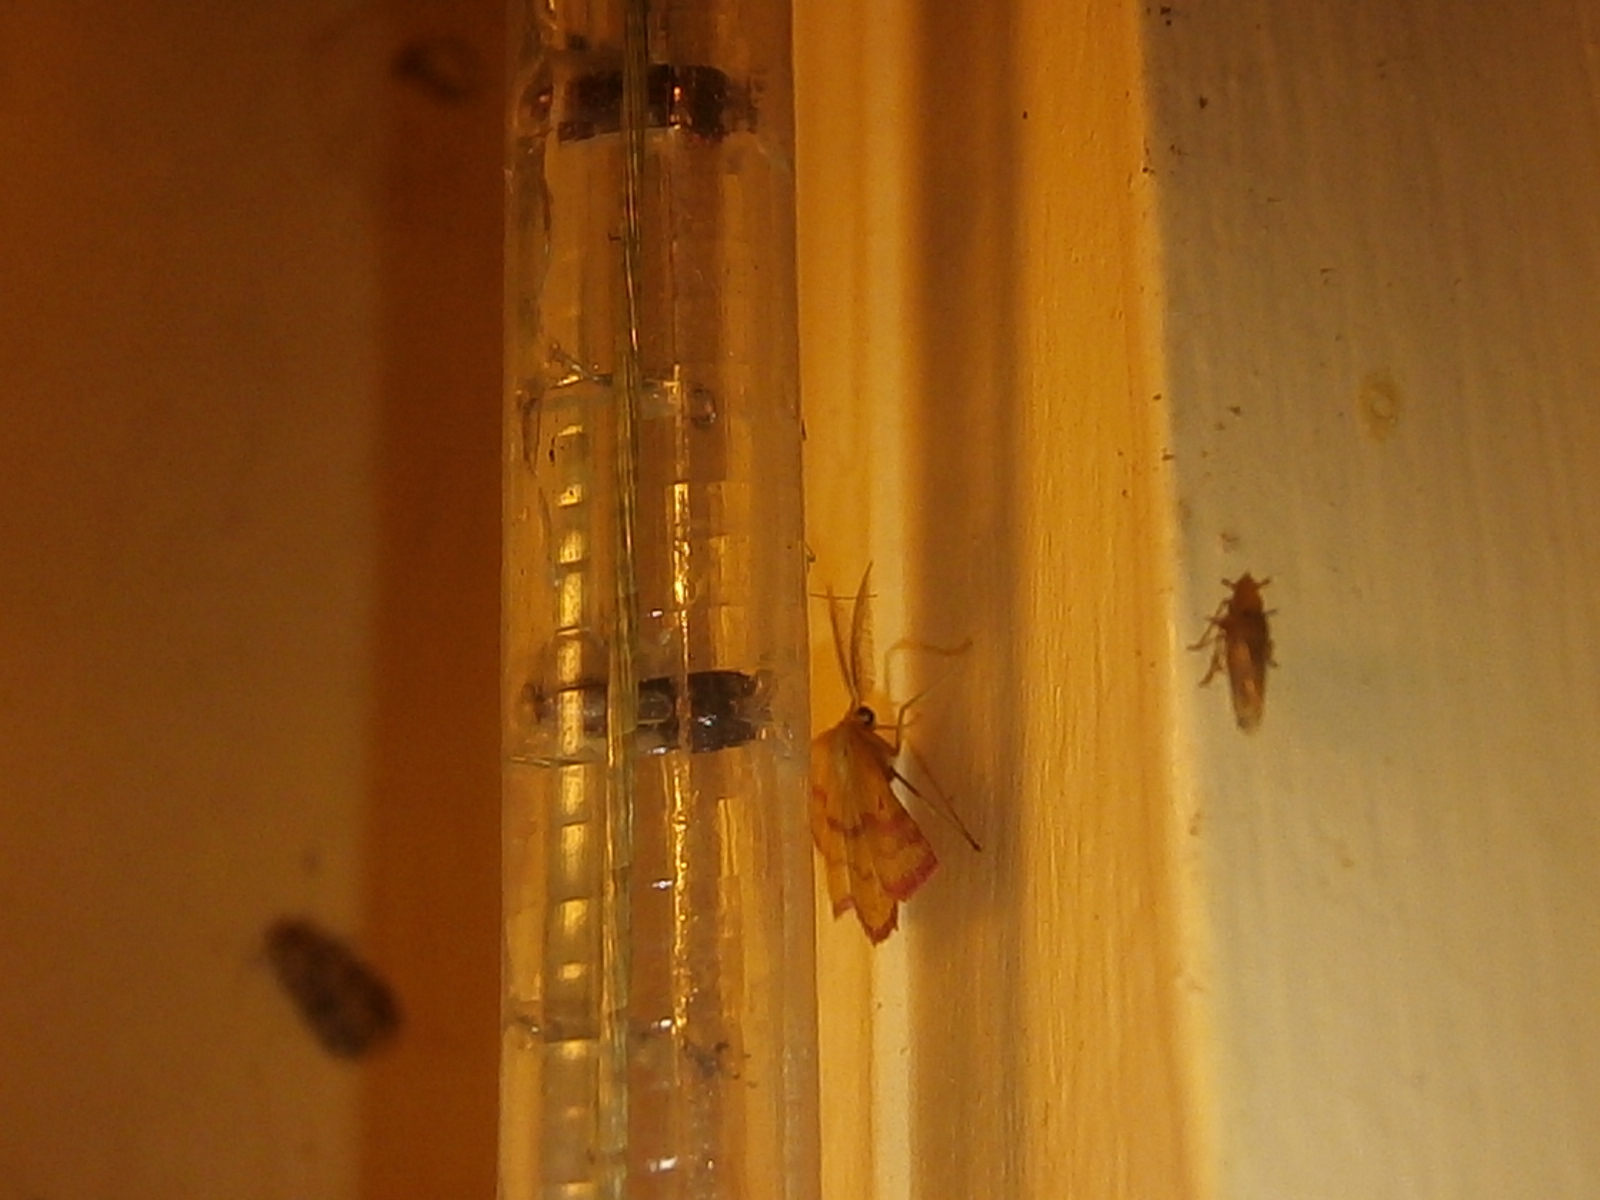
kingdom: Animalia
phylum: Arthropoda
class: Insecta
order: Lepidoptera
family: Geometridae
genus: Haematopis
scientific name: Haematopis grataria
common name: Chickweed geometer
